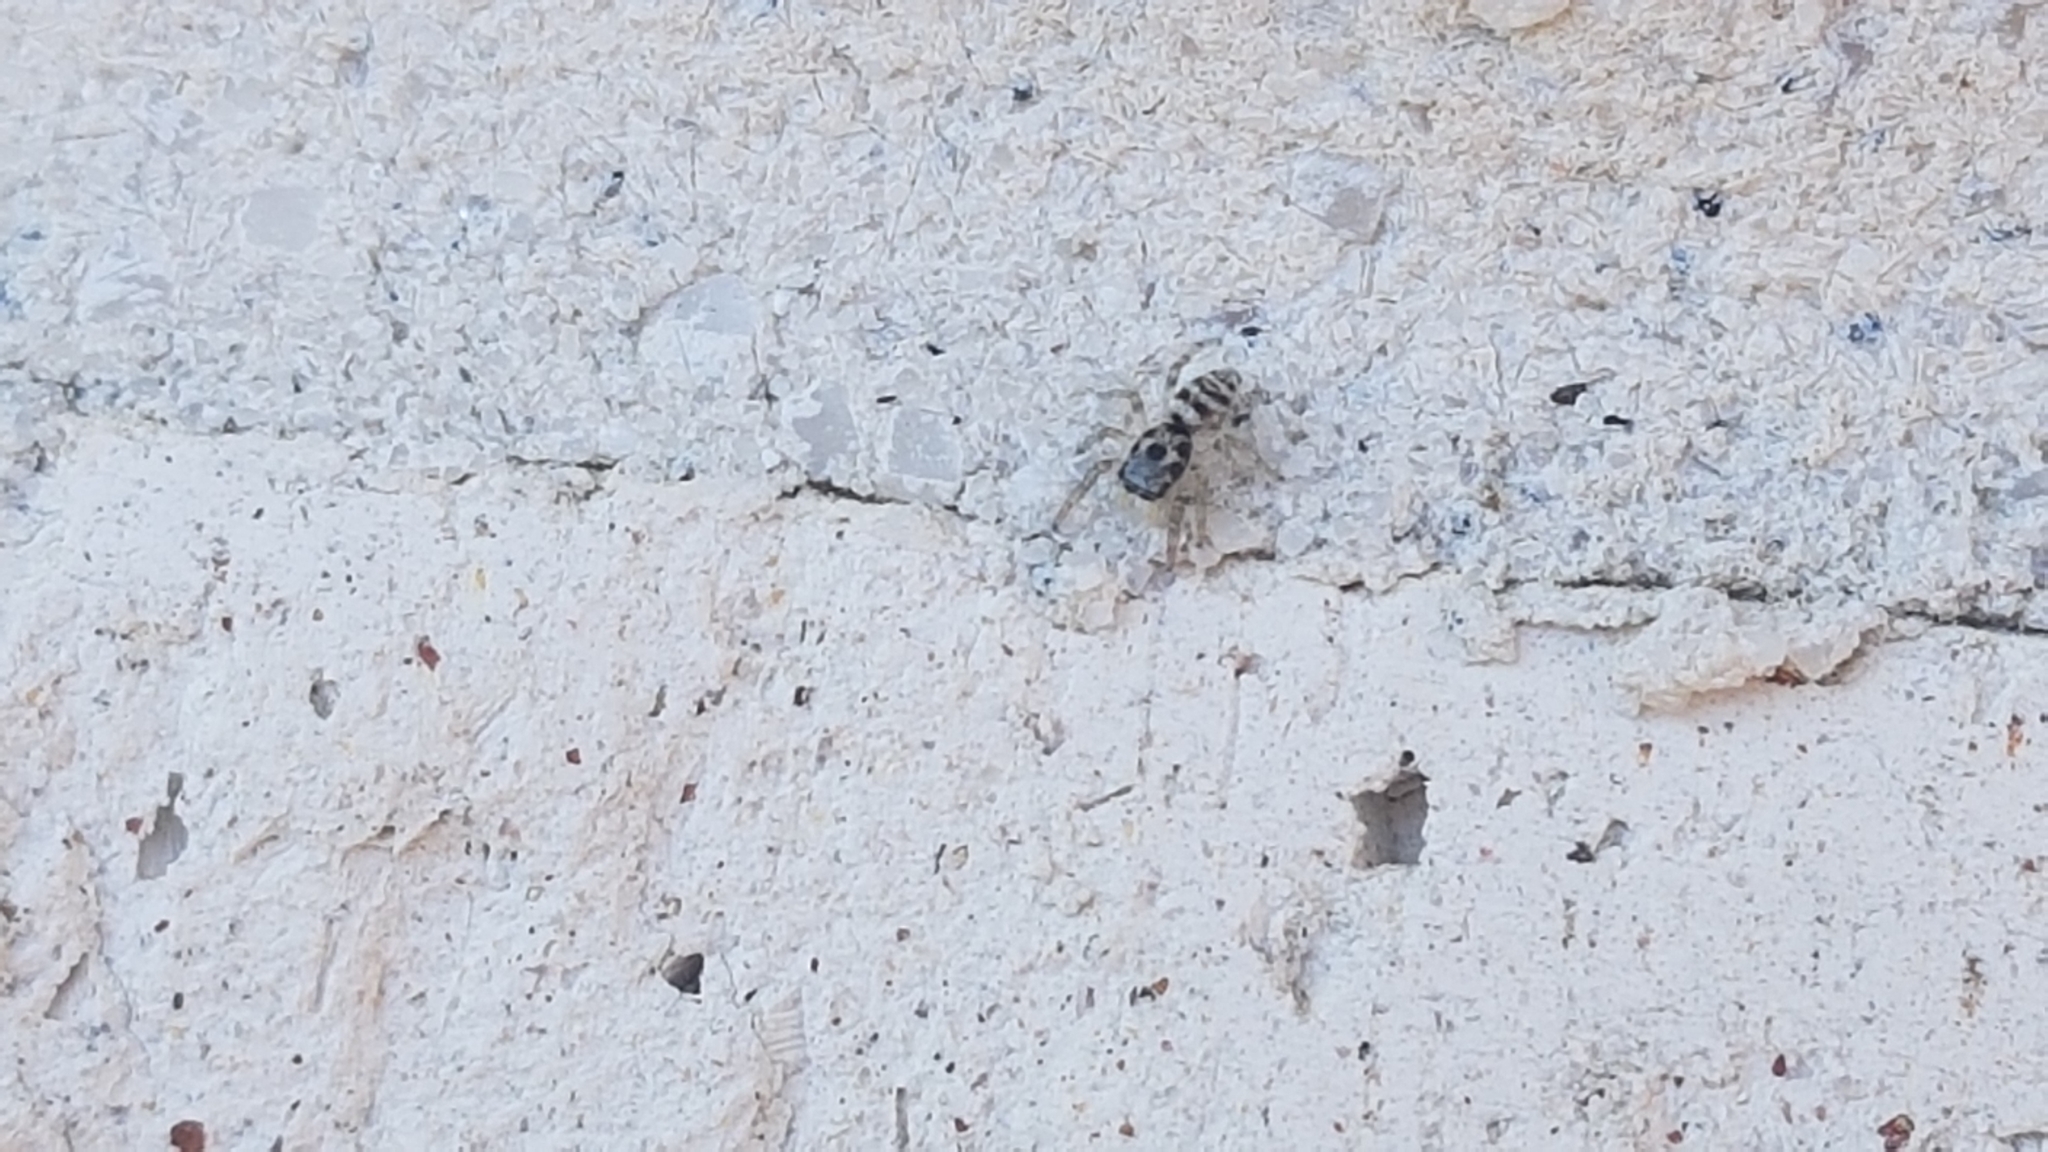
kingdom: Animalia
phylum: Arthropoda
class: Arachnida
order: Araneae
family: Salticidae
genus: Salticus
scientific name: Salticus scenicus
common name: Zebra jumper
